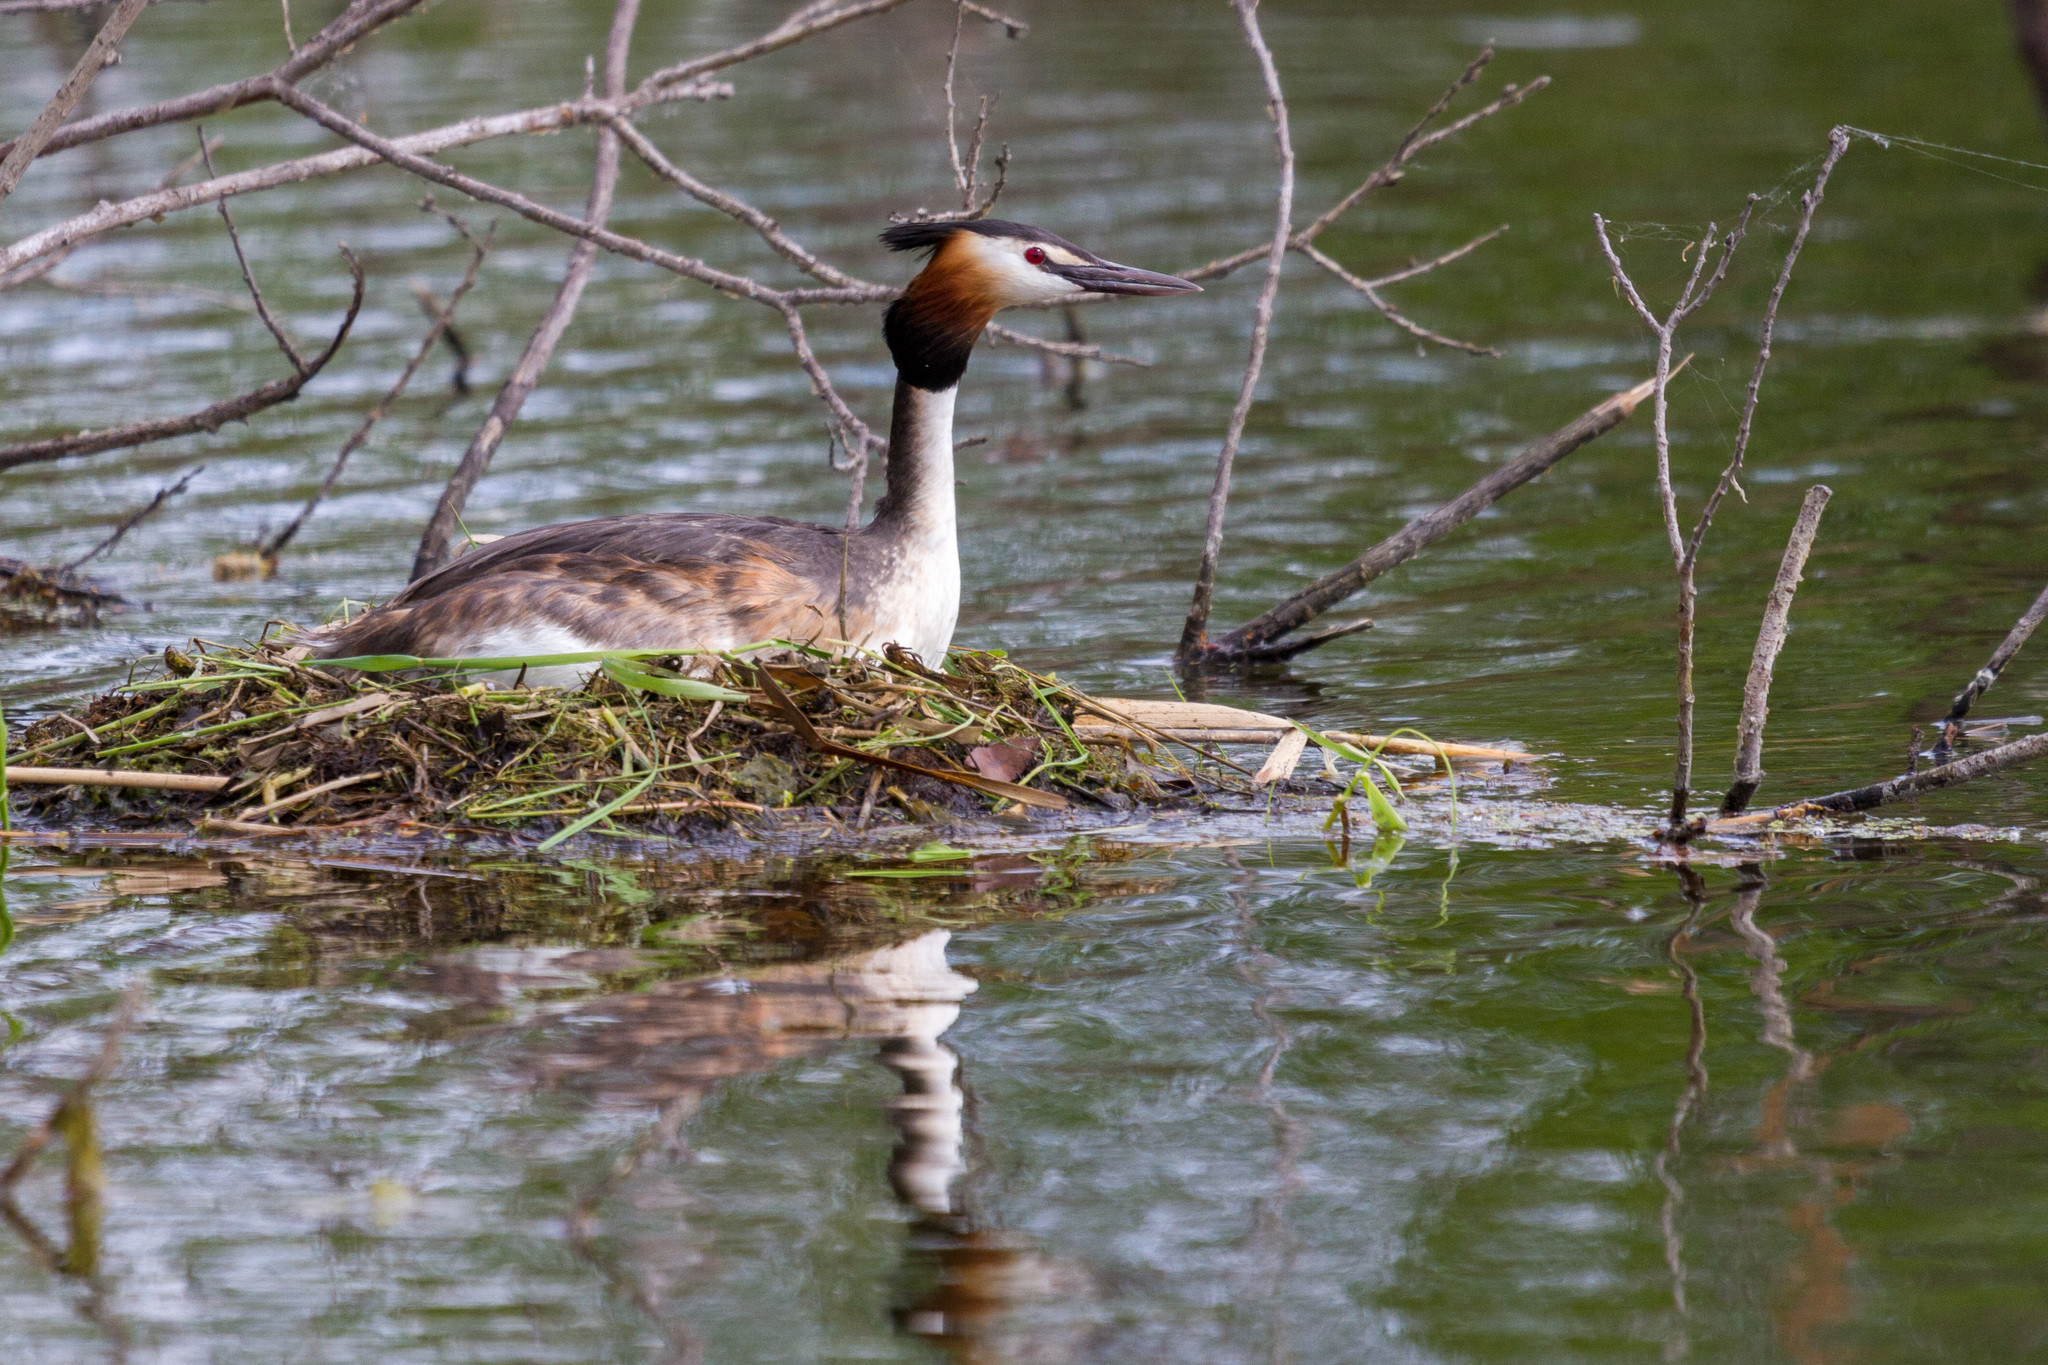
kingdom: Animalia
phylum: Chordata
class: Aves
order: Podicipediformes
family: Podicipedidae
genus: Podiceps
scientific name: Podiceps cristatus
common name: Great crested grebe
